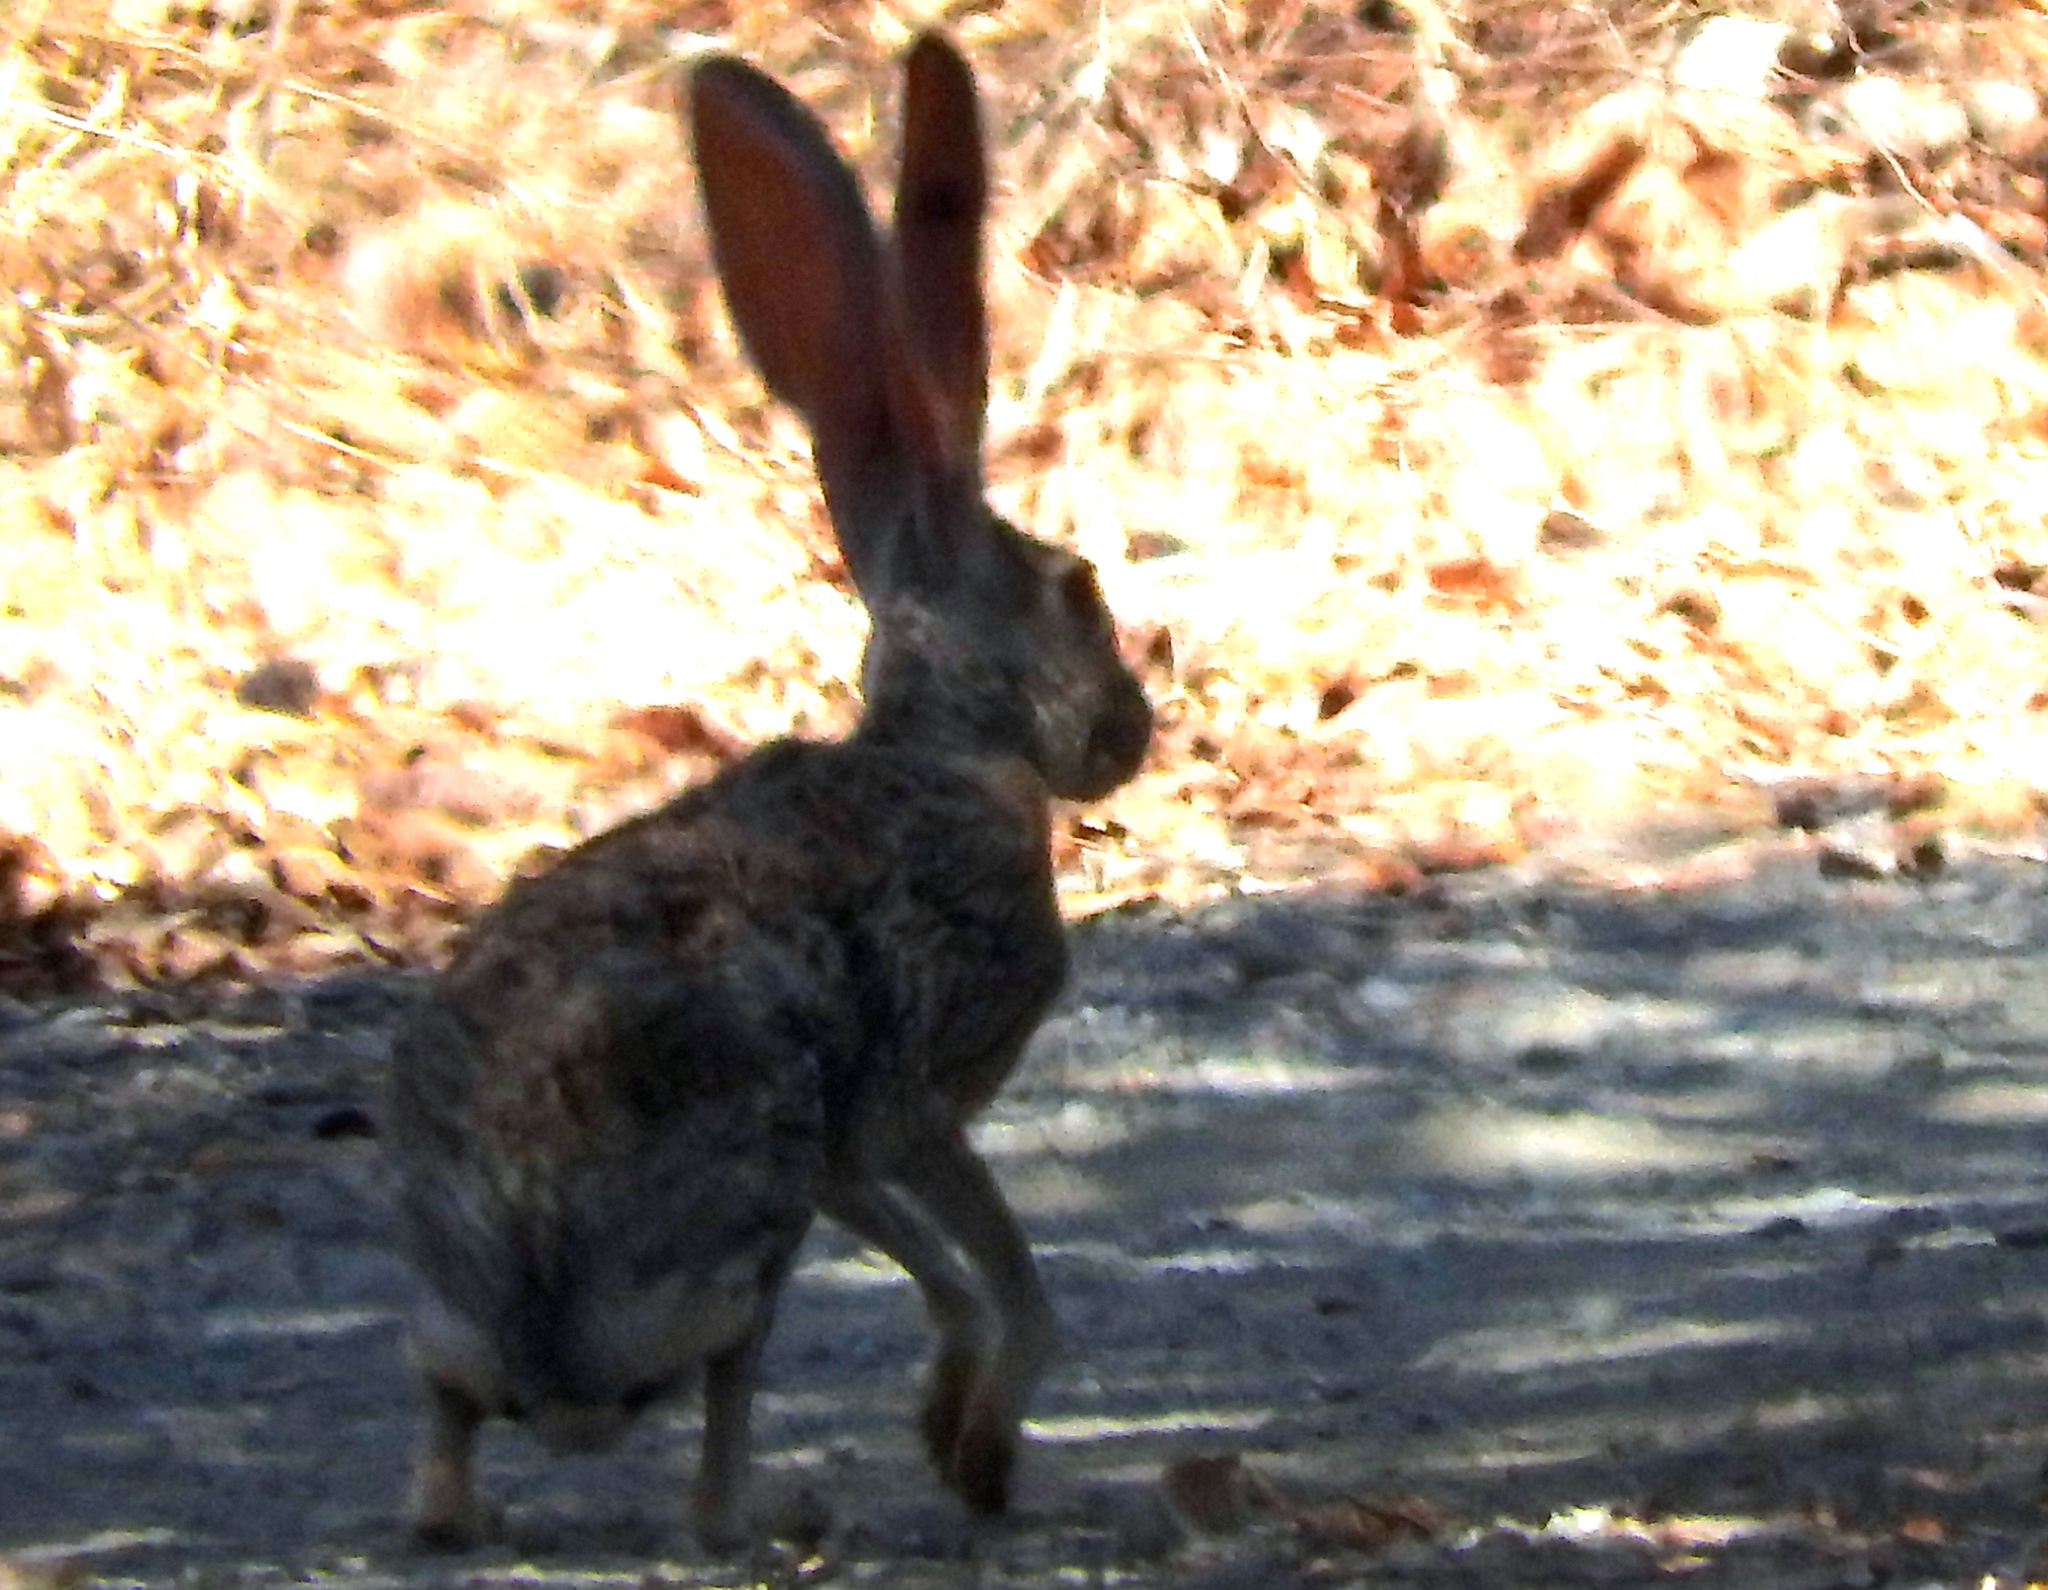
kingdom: Animalia
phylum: Chordata
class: Mammalia
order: Lagomorpha
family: Leporidae
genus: Lepus
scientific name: Lepus alleni
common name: Antelope jackrabbit
